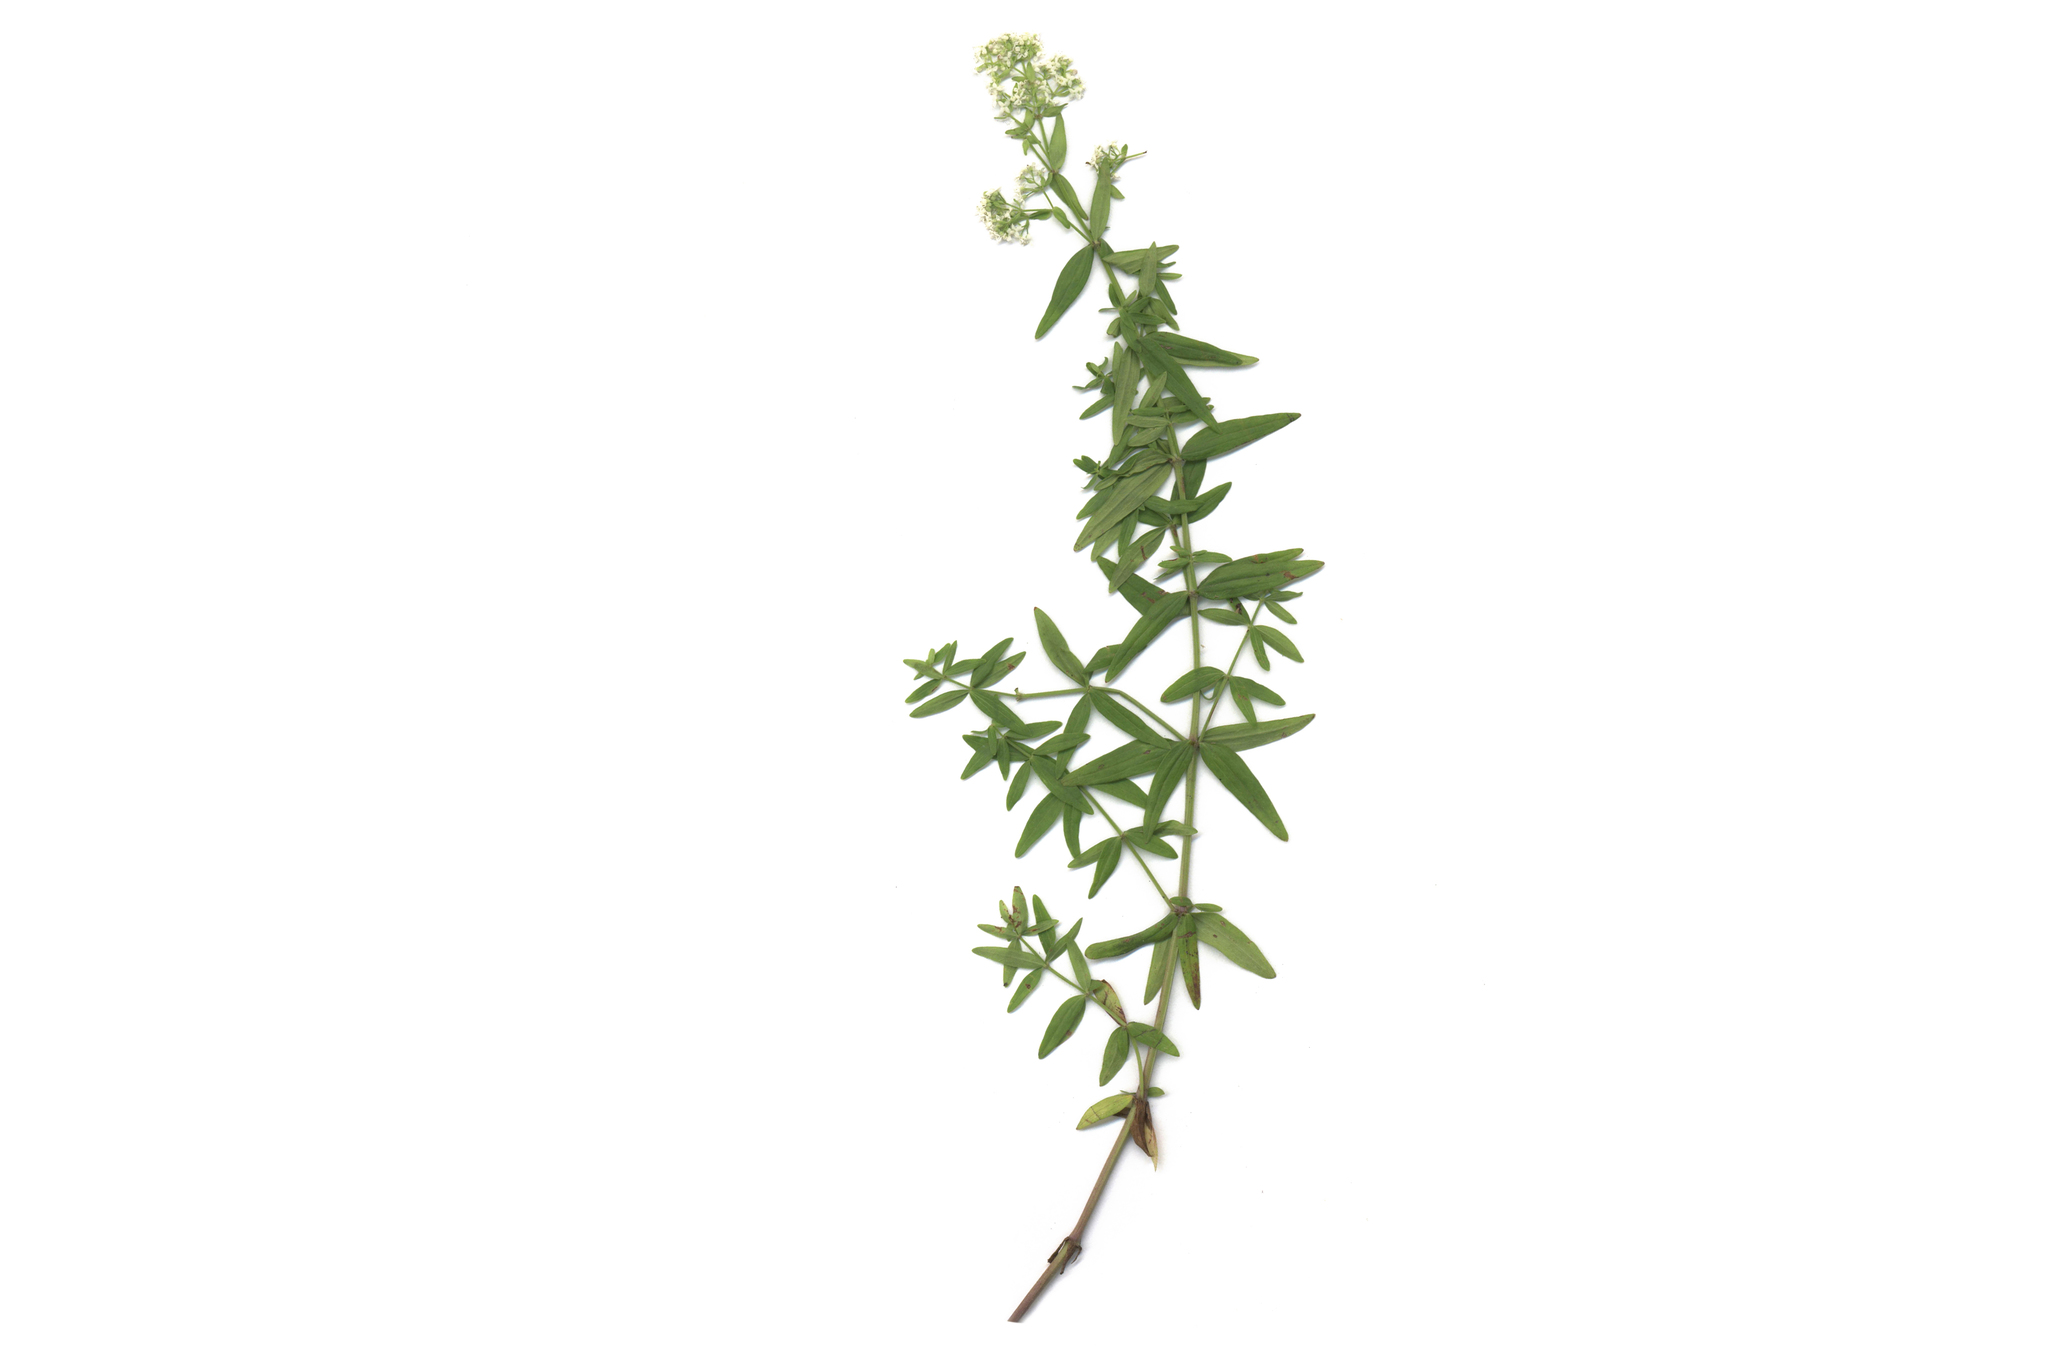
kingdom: Plantae
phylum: Tracheophyta
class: Magnoliopsida
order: Gentianales
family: Rubiaceae
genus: Galium
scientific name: Galium boreale
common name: Northern bedstraw
